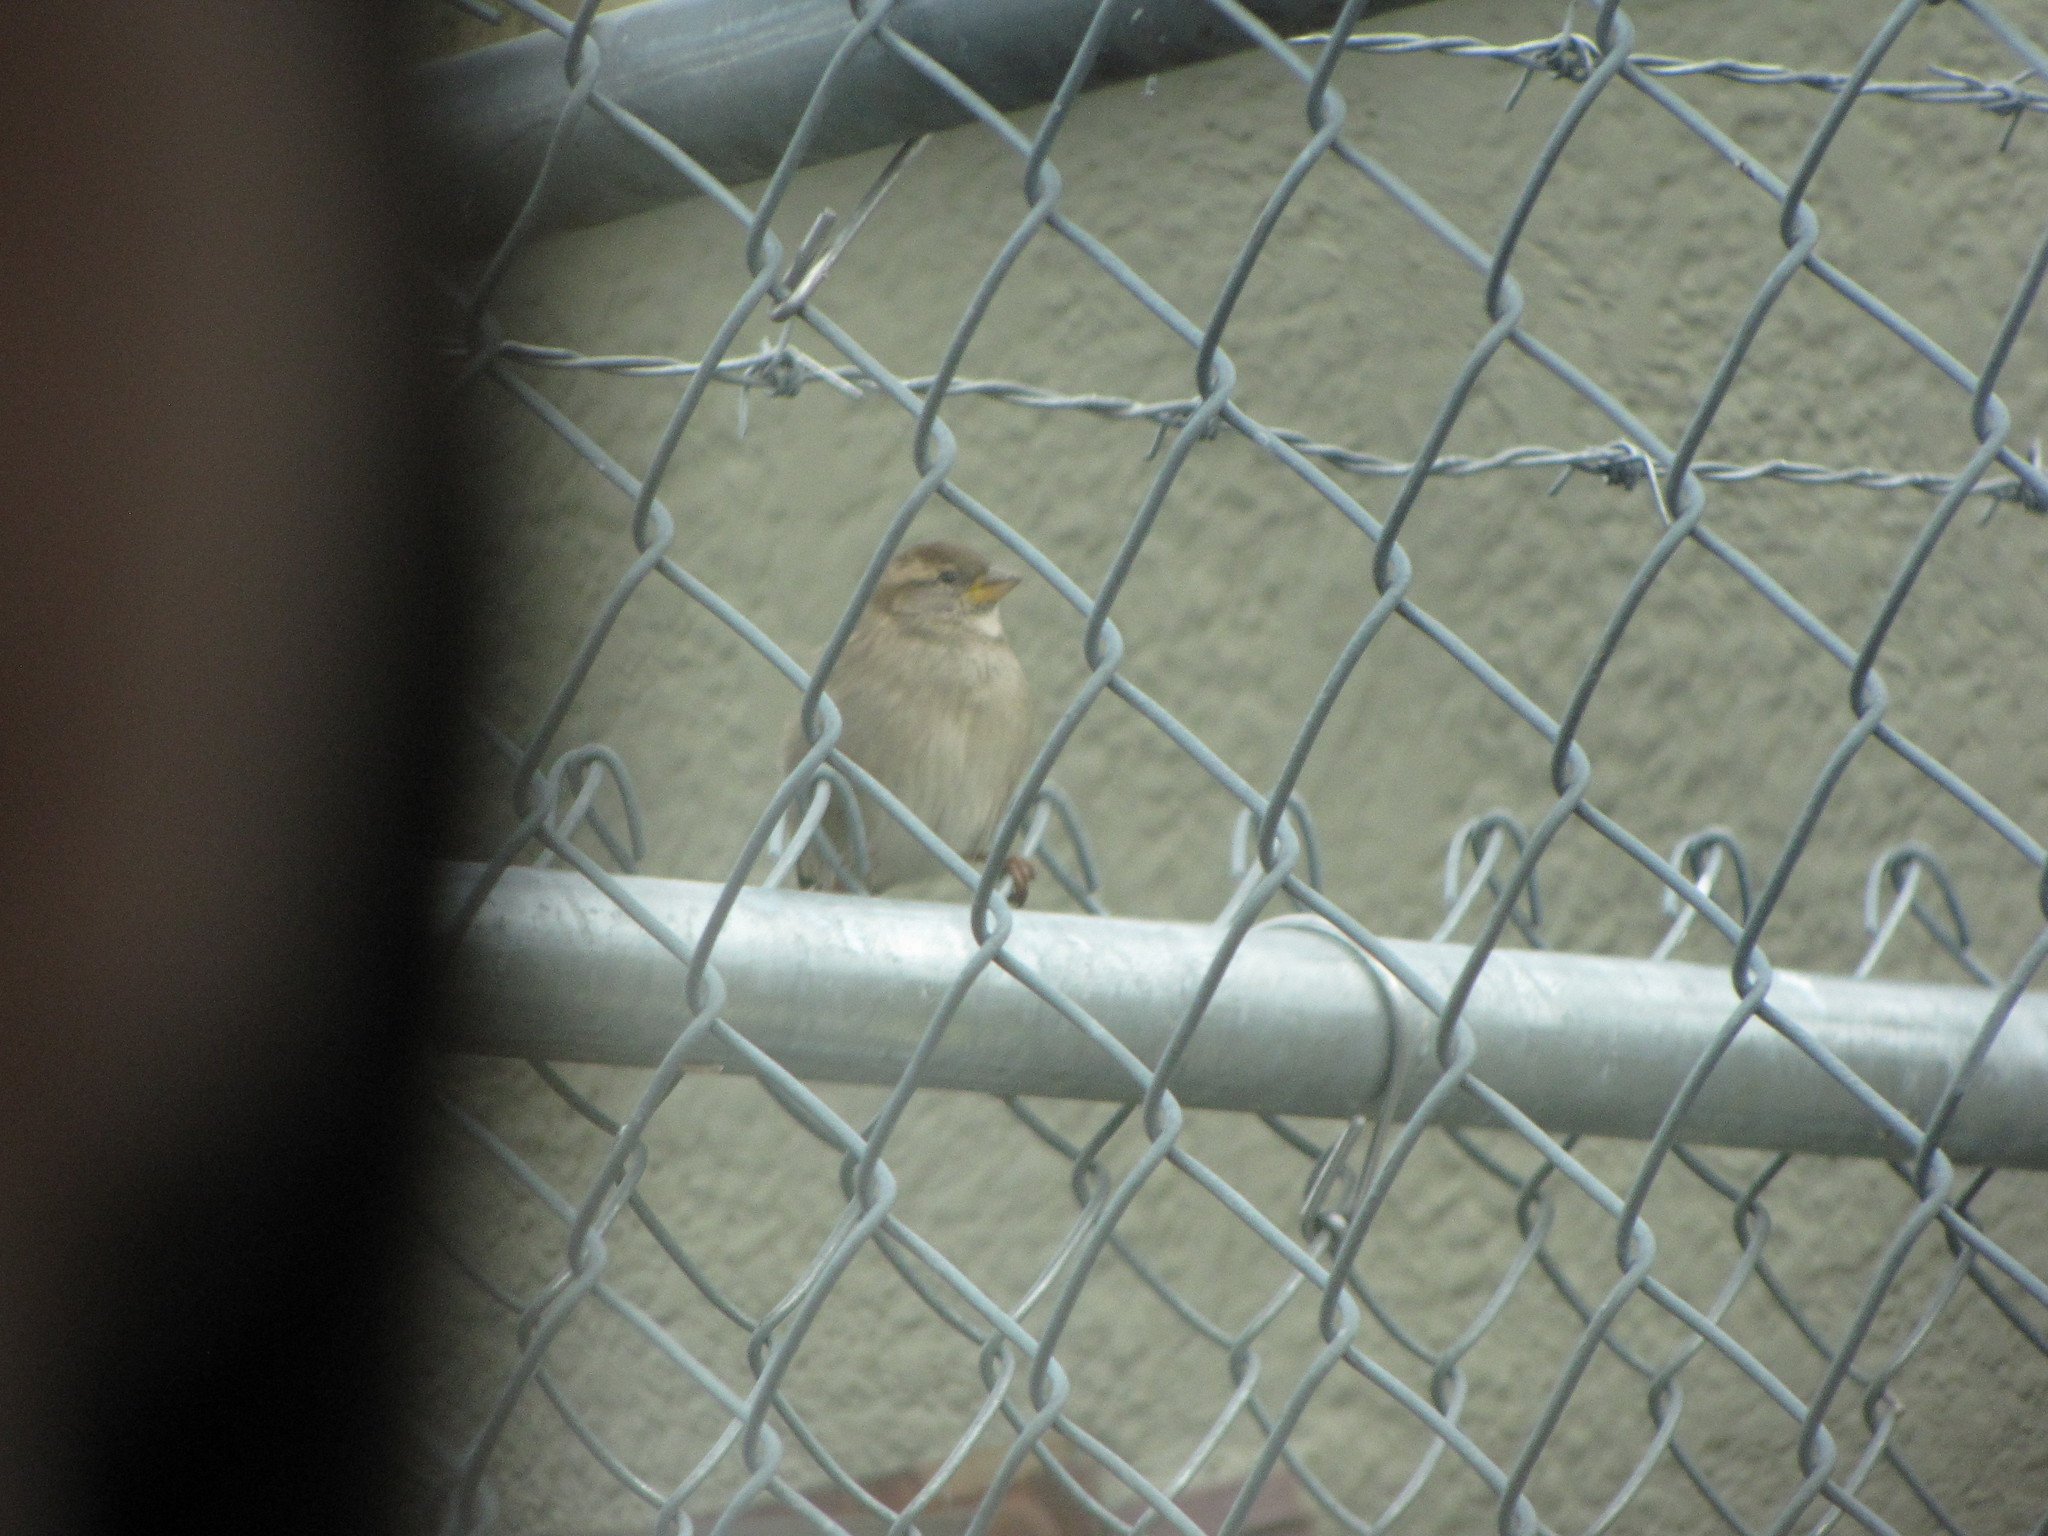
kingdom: Animalia
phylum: Chordata
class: Aves
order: Passeriformes
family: Passeridae
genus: Passer
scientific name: Passer domesticus
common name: House sparrow
